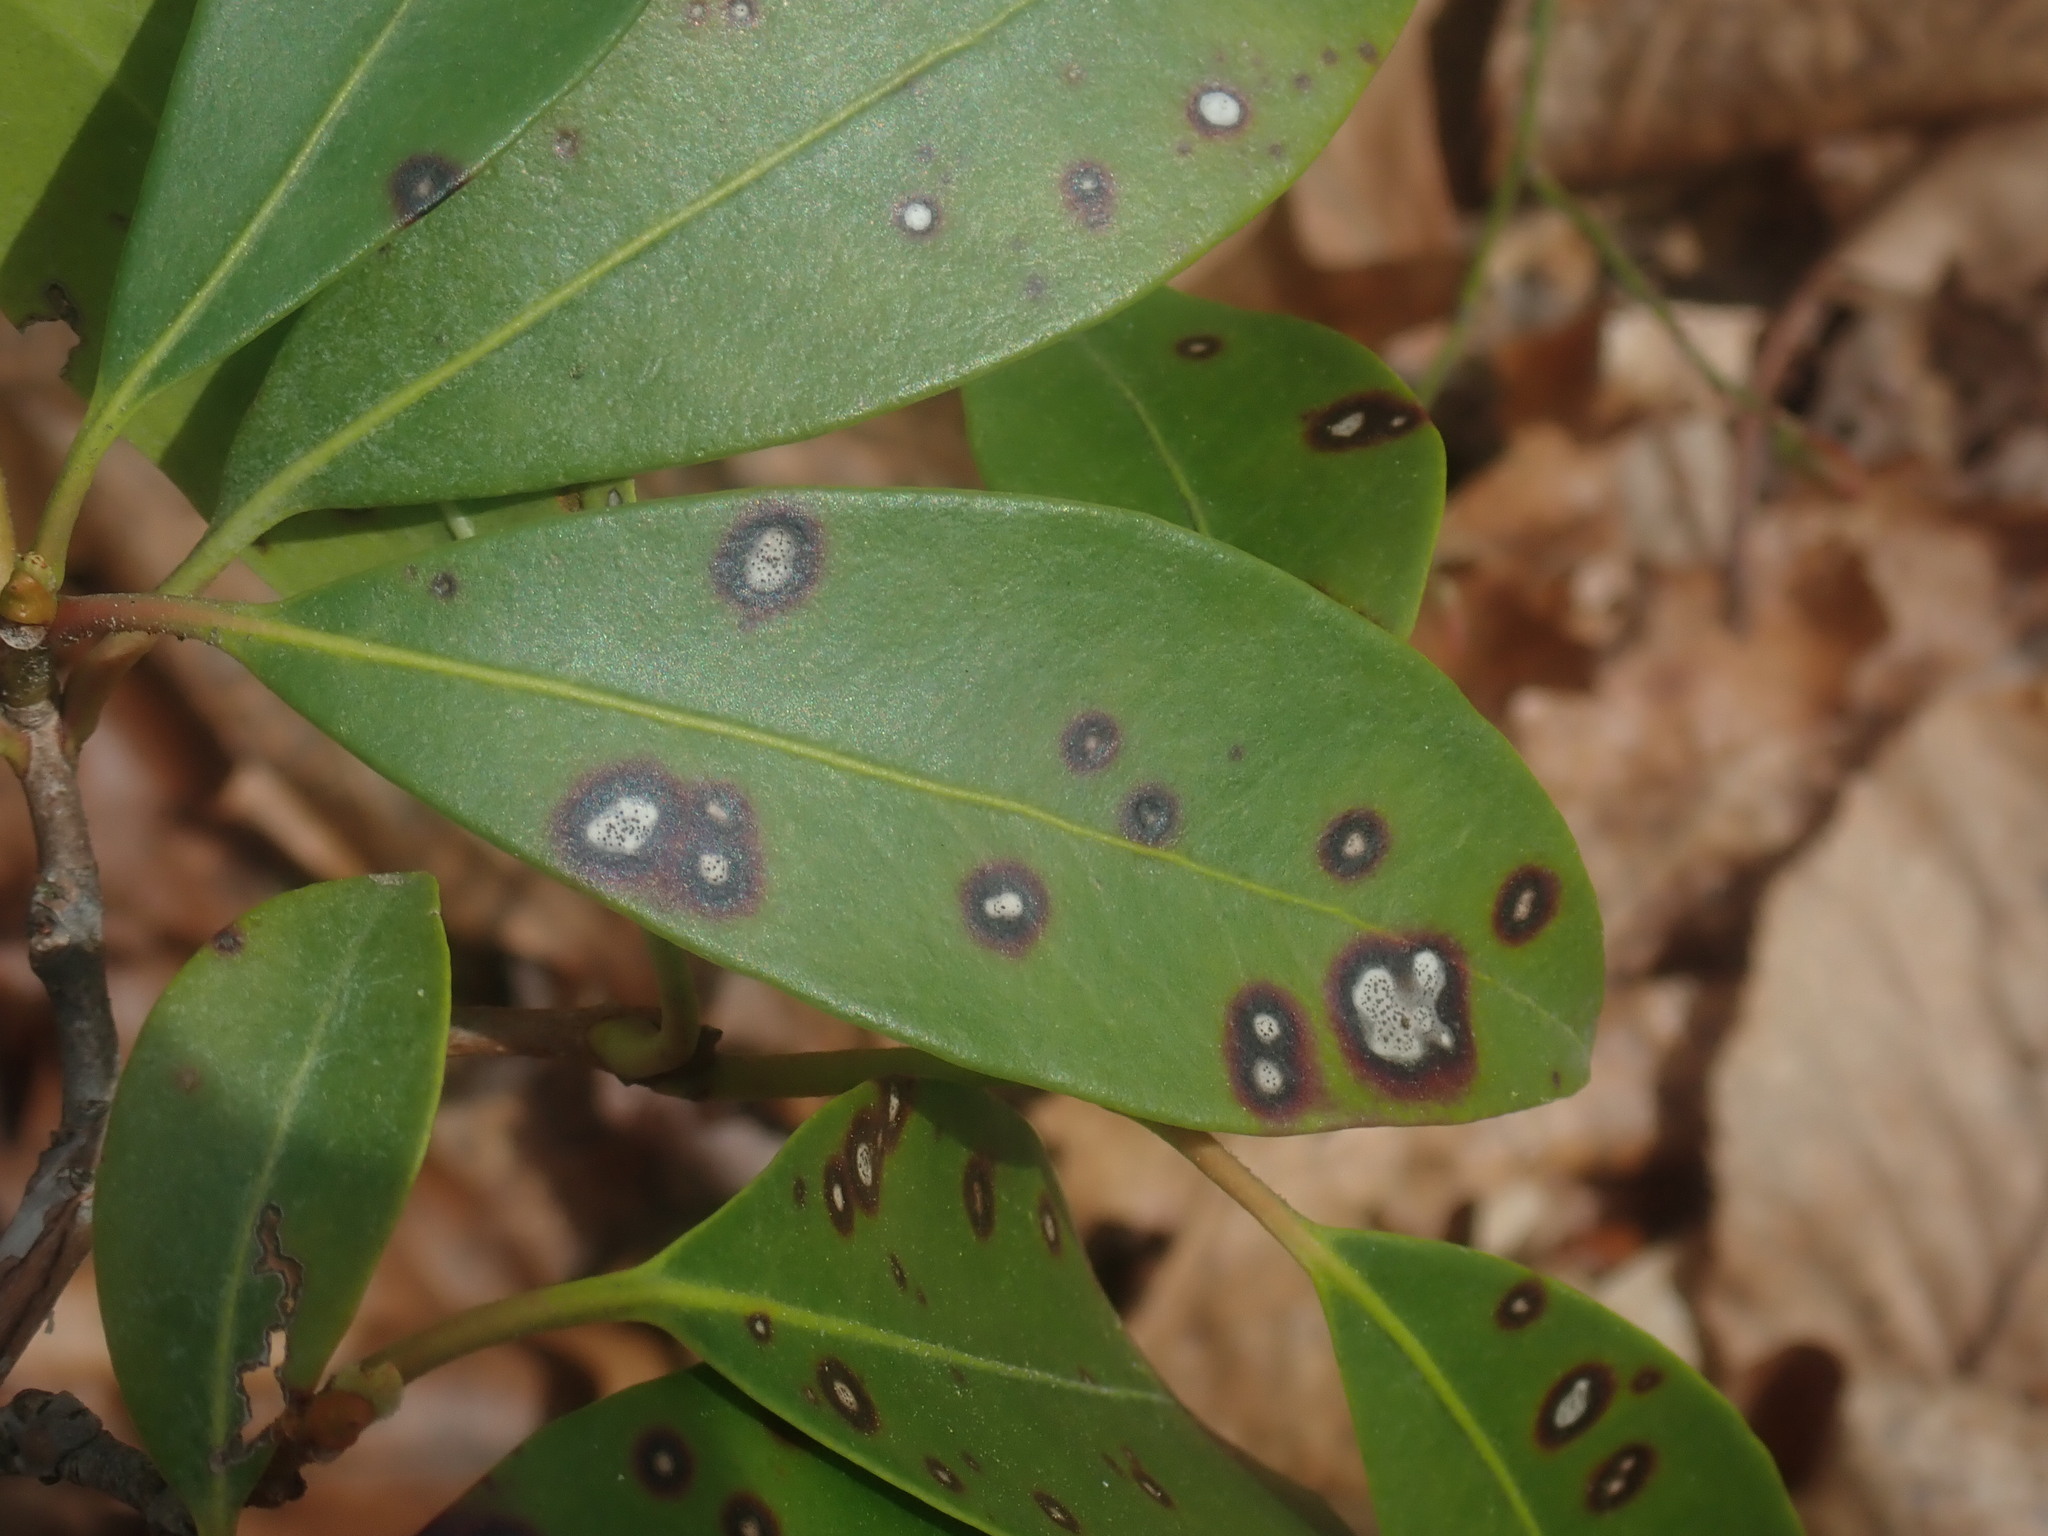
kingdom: Fungi
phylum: Ascomycota
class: Dothideomycetes
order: Mycosphaerellales
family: Mycosphaerellaceae
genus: Mycosphaerella
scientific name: Mycosphaerella colorata
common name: Mountain laurel leaf spot
